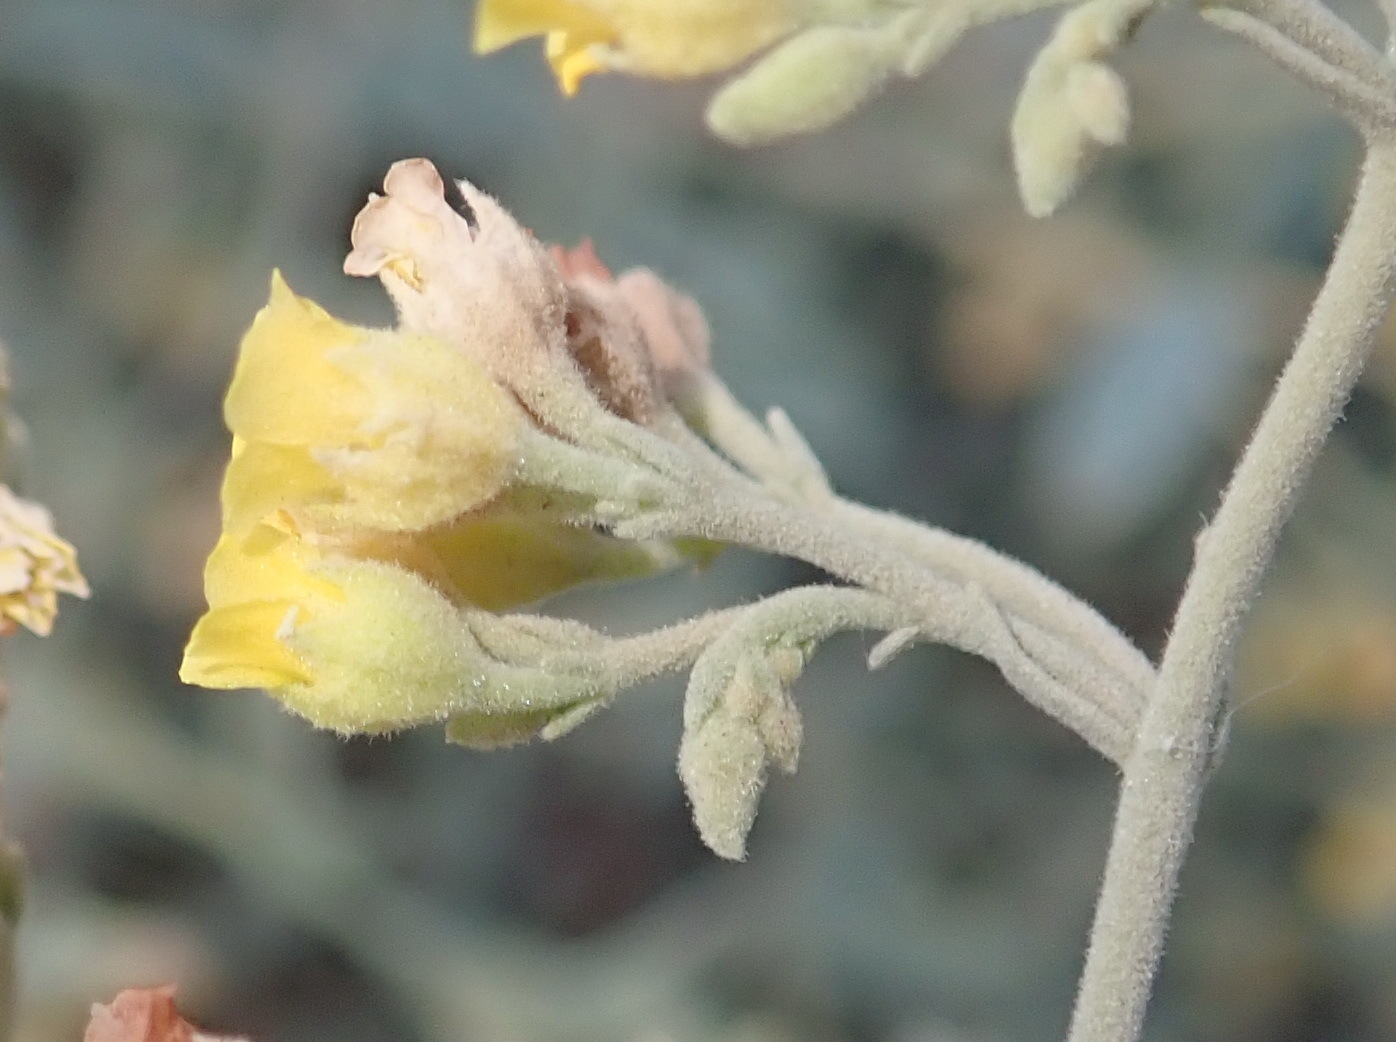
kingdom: Plantae
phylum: Tracheophyta
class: Magnoliopsida
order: Malvales
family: Malvaceae
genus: Hermannia
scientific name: Hermannia holosericea
